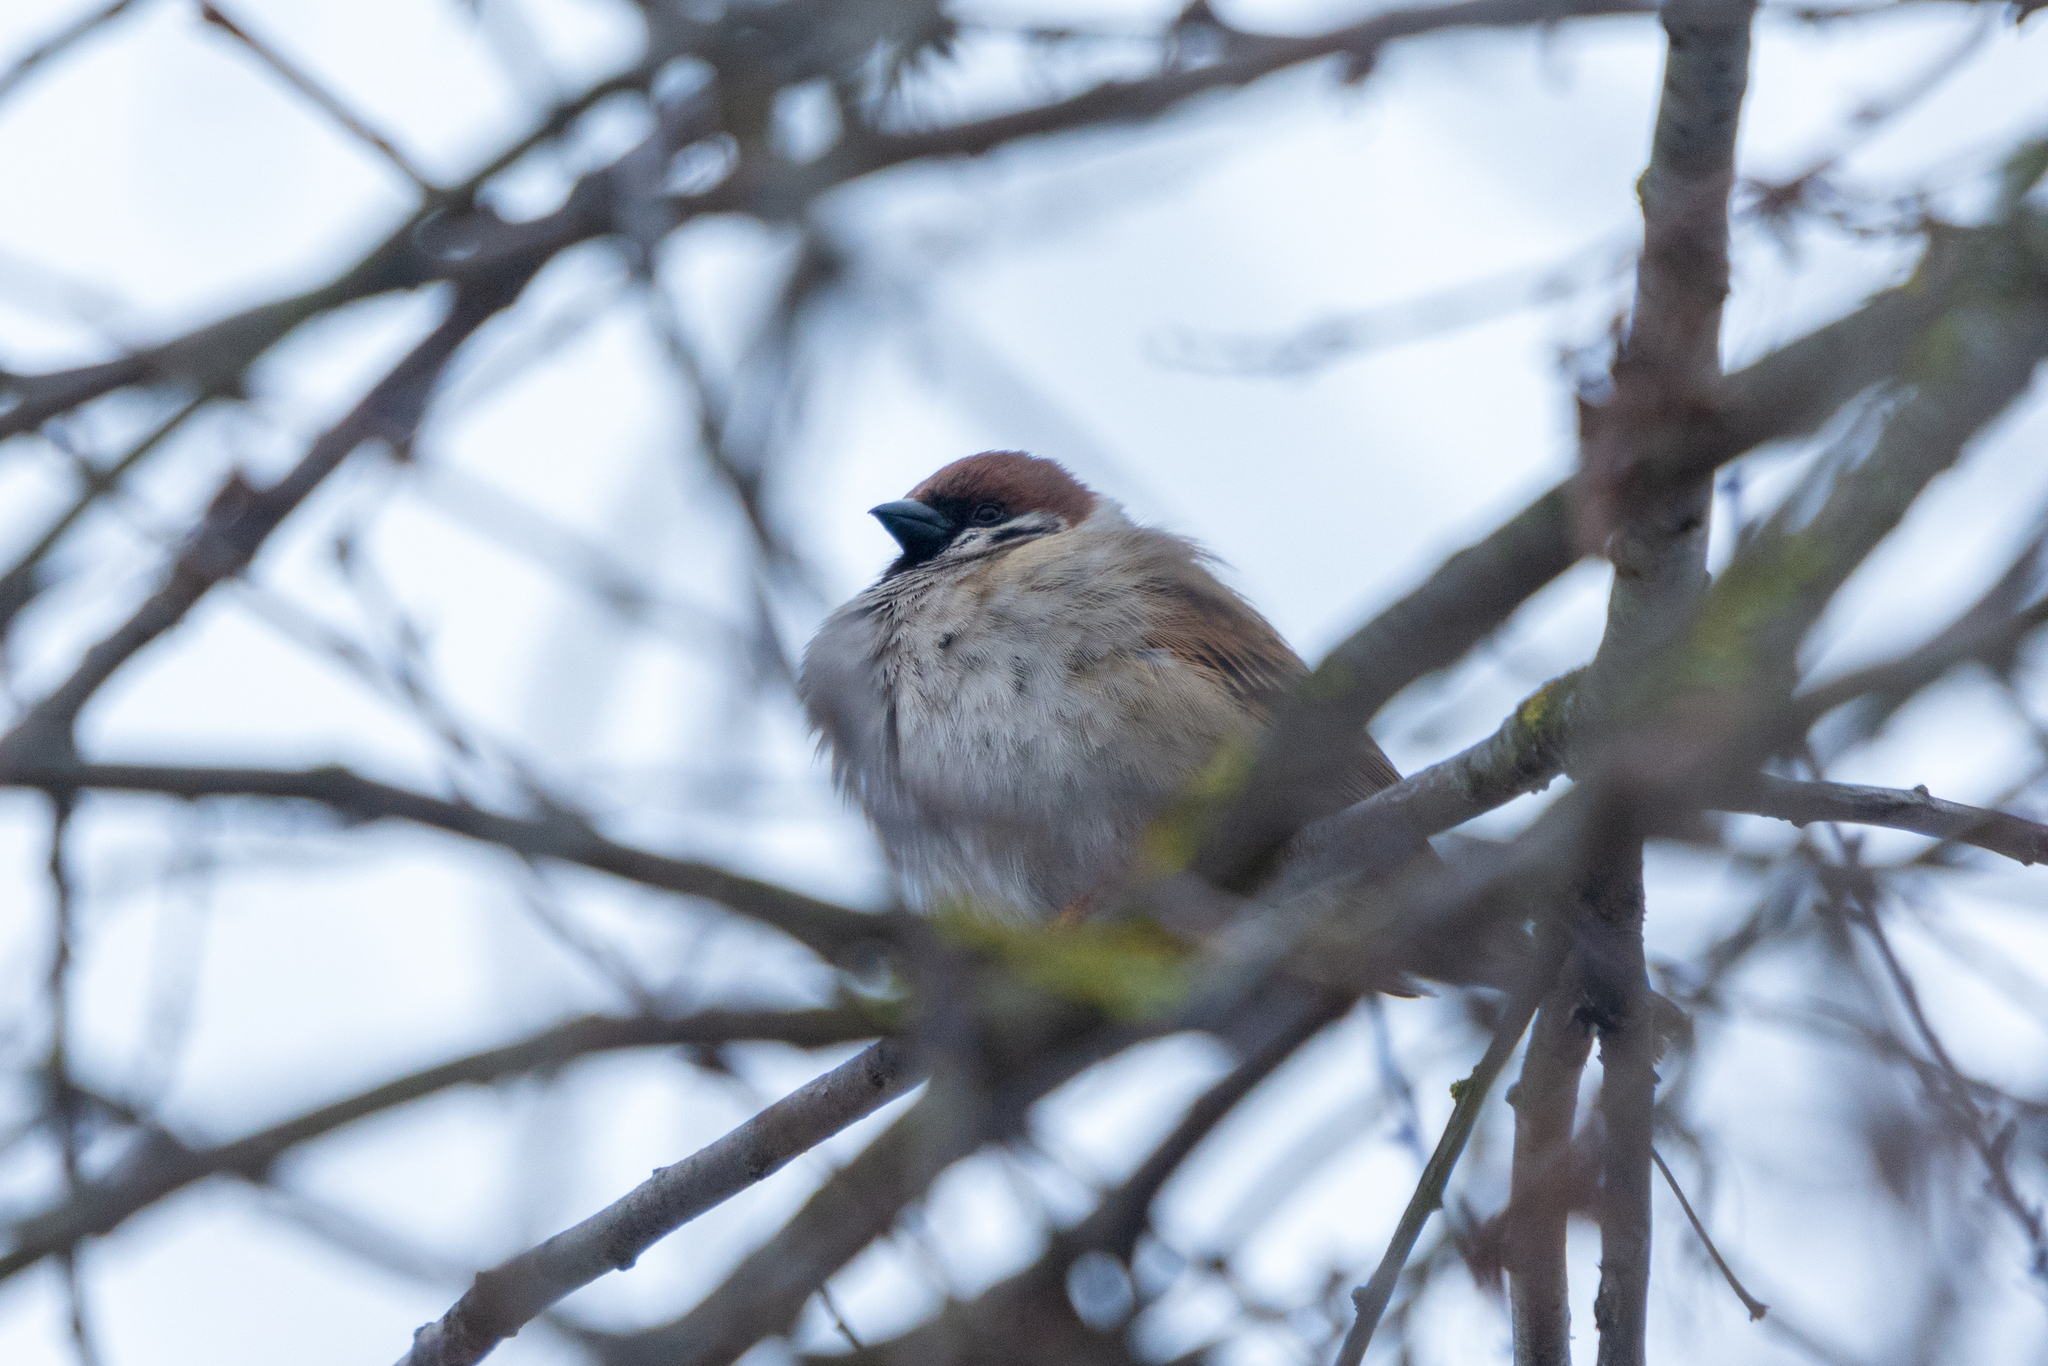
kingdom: Animalia
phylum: Chordata
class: Aves
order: Passeriformes
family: Passeridae
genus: Passer
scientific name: Passer montanus
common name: Eurasian tree sparrow
